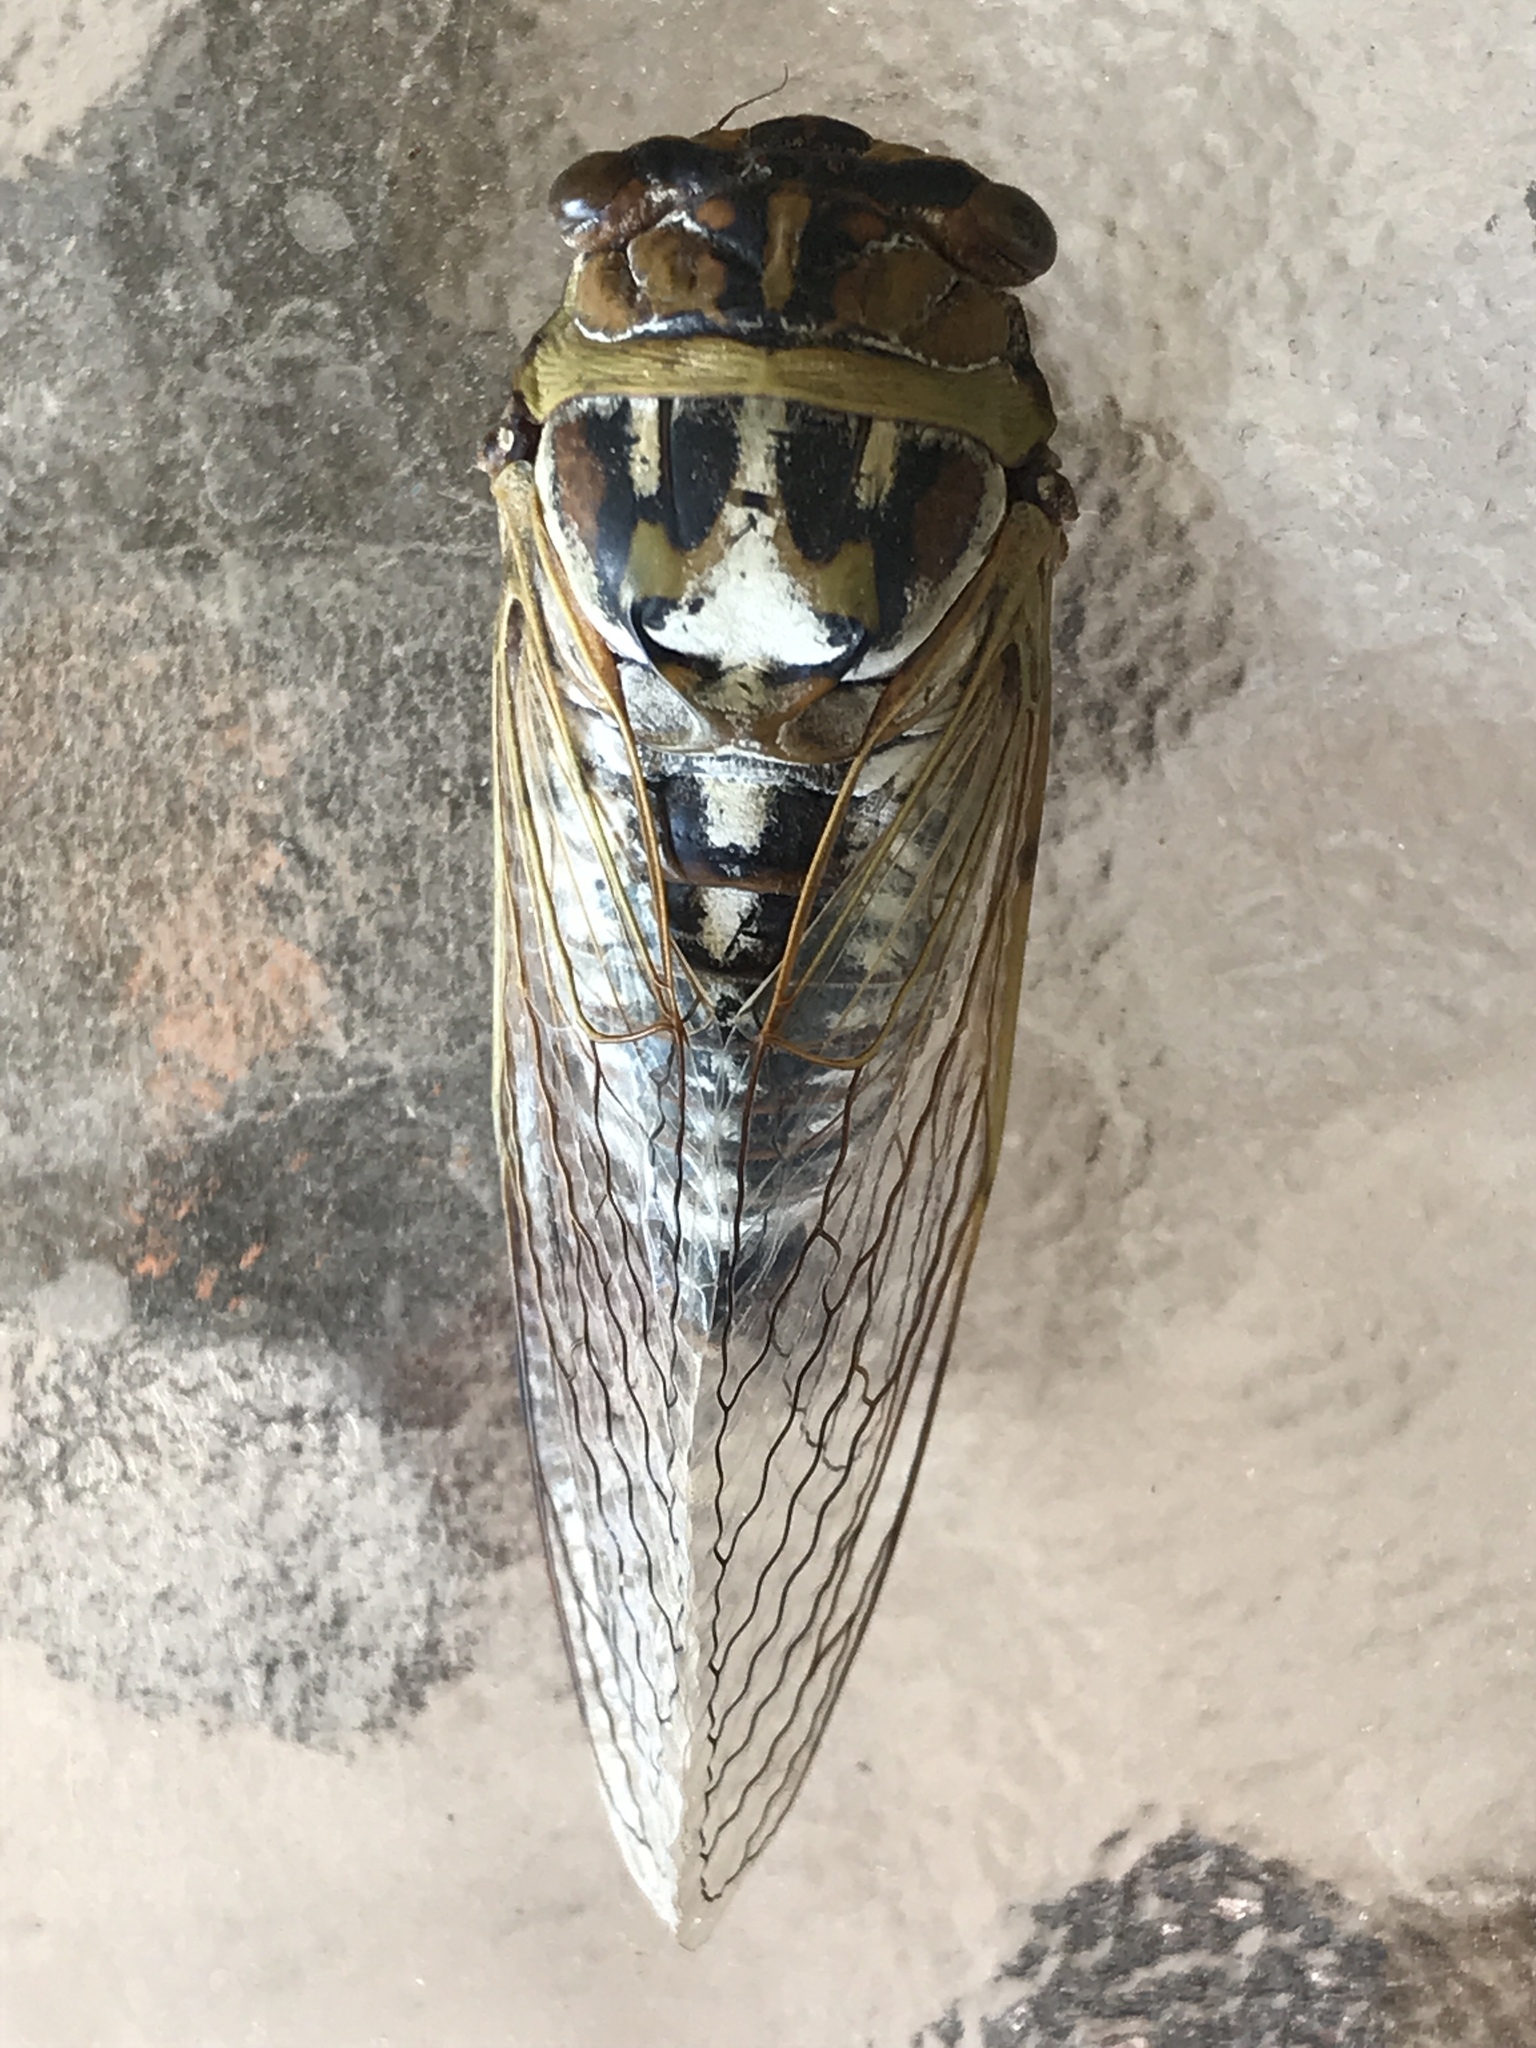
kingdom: Animalia
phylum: Arthropoda
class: Insecta
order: Hemiptera
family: Cicadidae
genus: Megatibicen
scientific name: Megatibicen dealbatus
